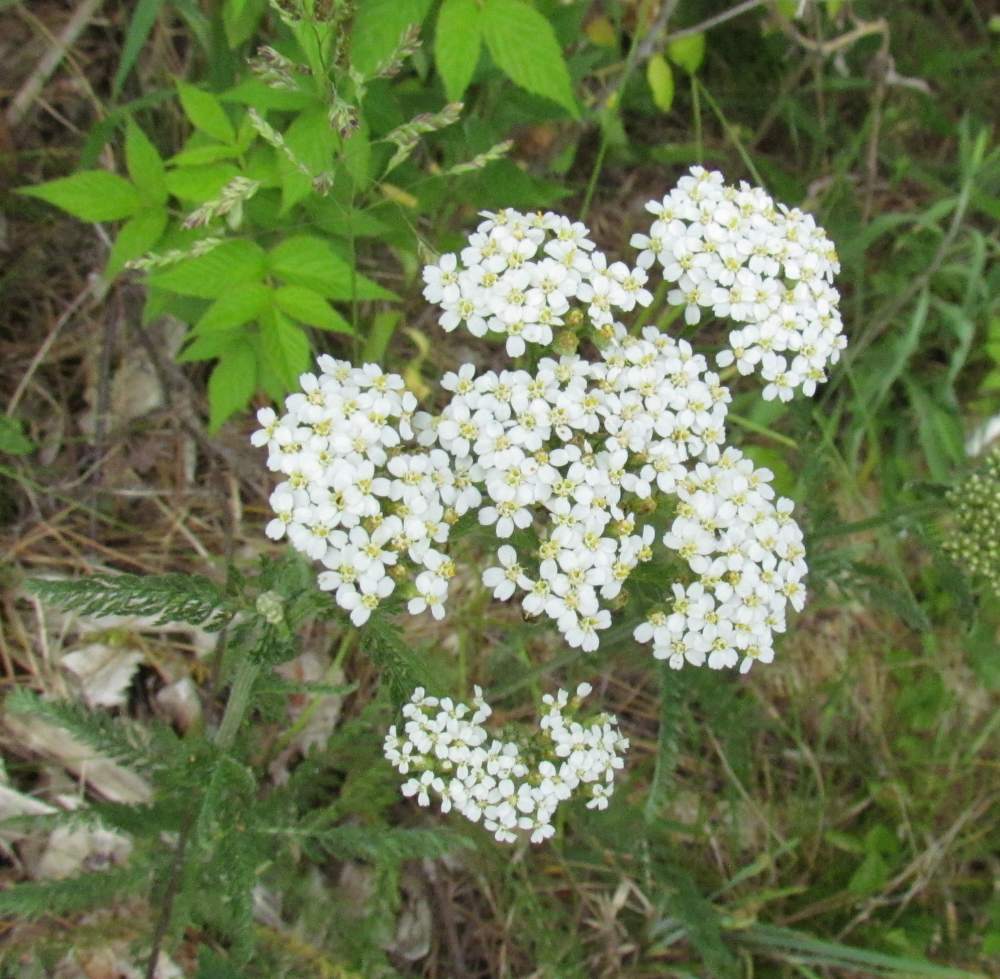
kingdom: Plantae
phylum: Tracheophyta
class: Magnoliopsida
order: Asterales
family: Asteraceae
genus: Achillea
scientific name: Achillea millefolium
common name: Yarrow
